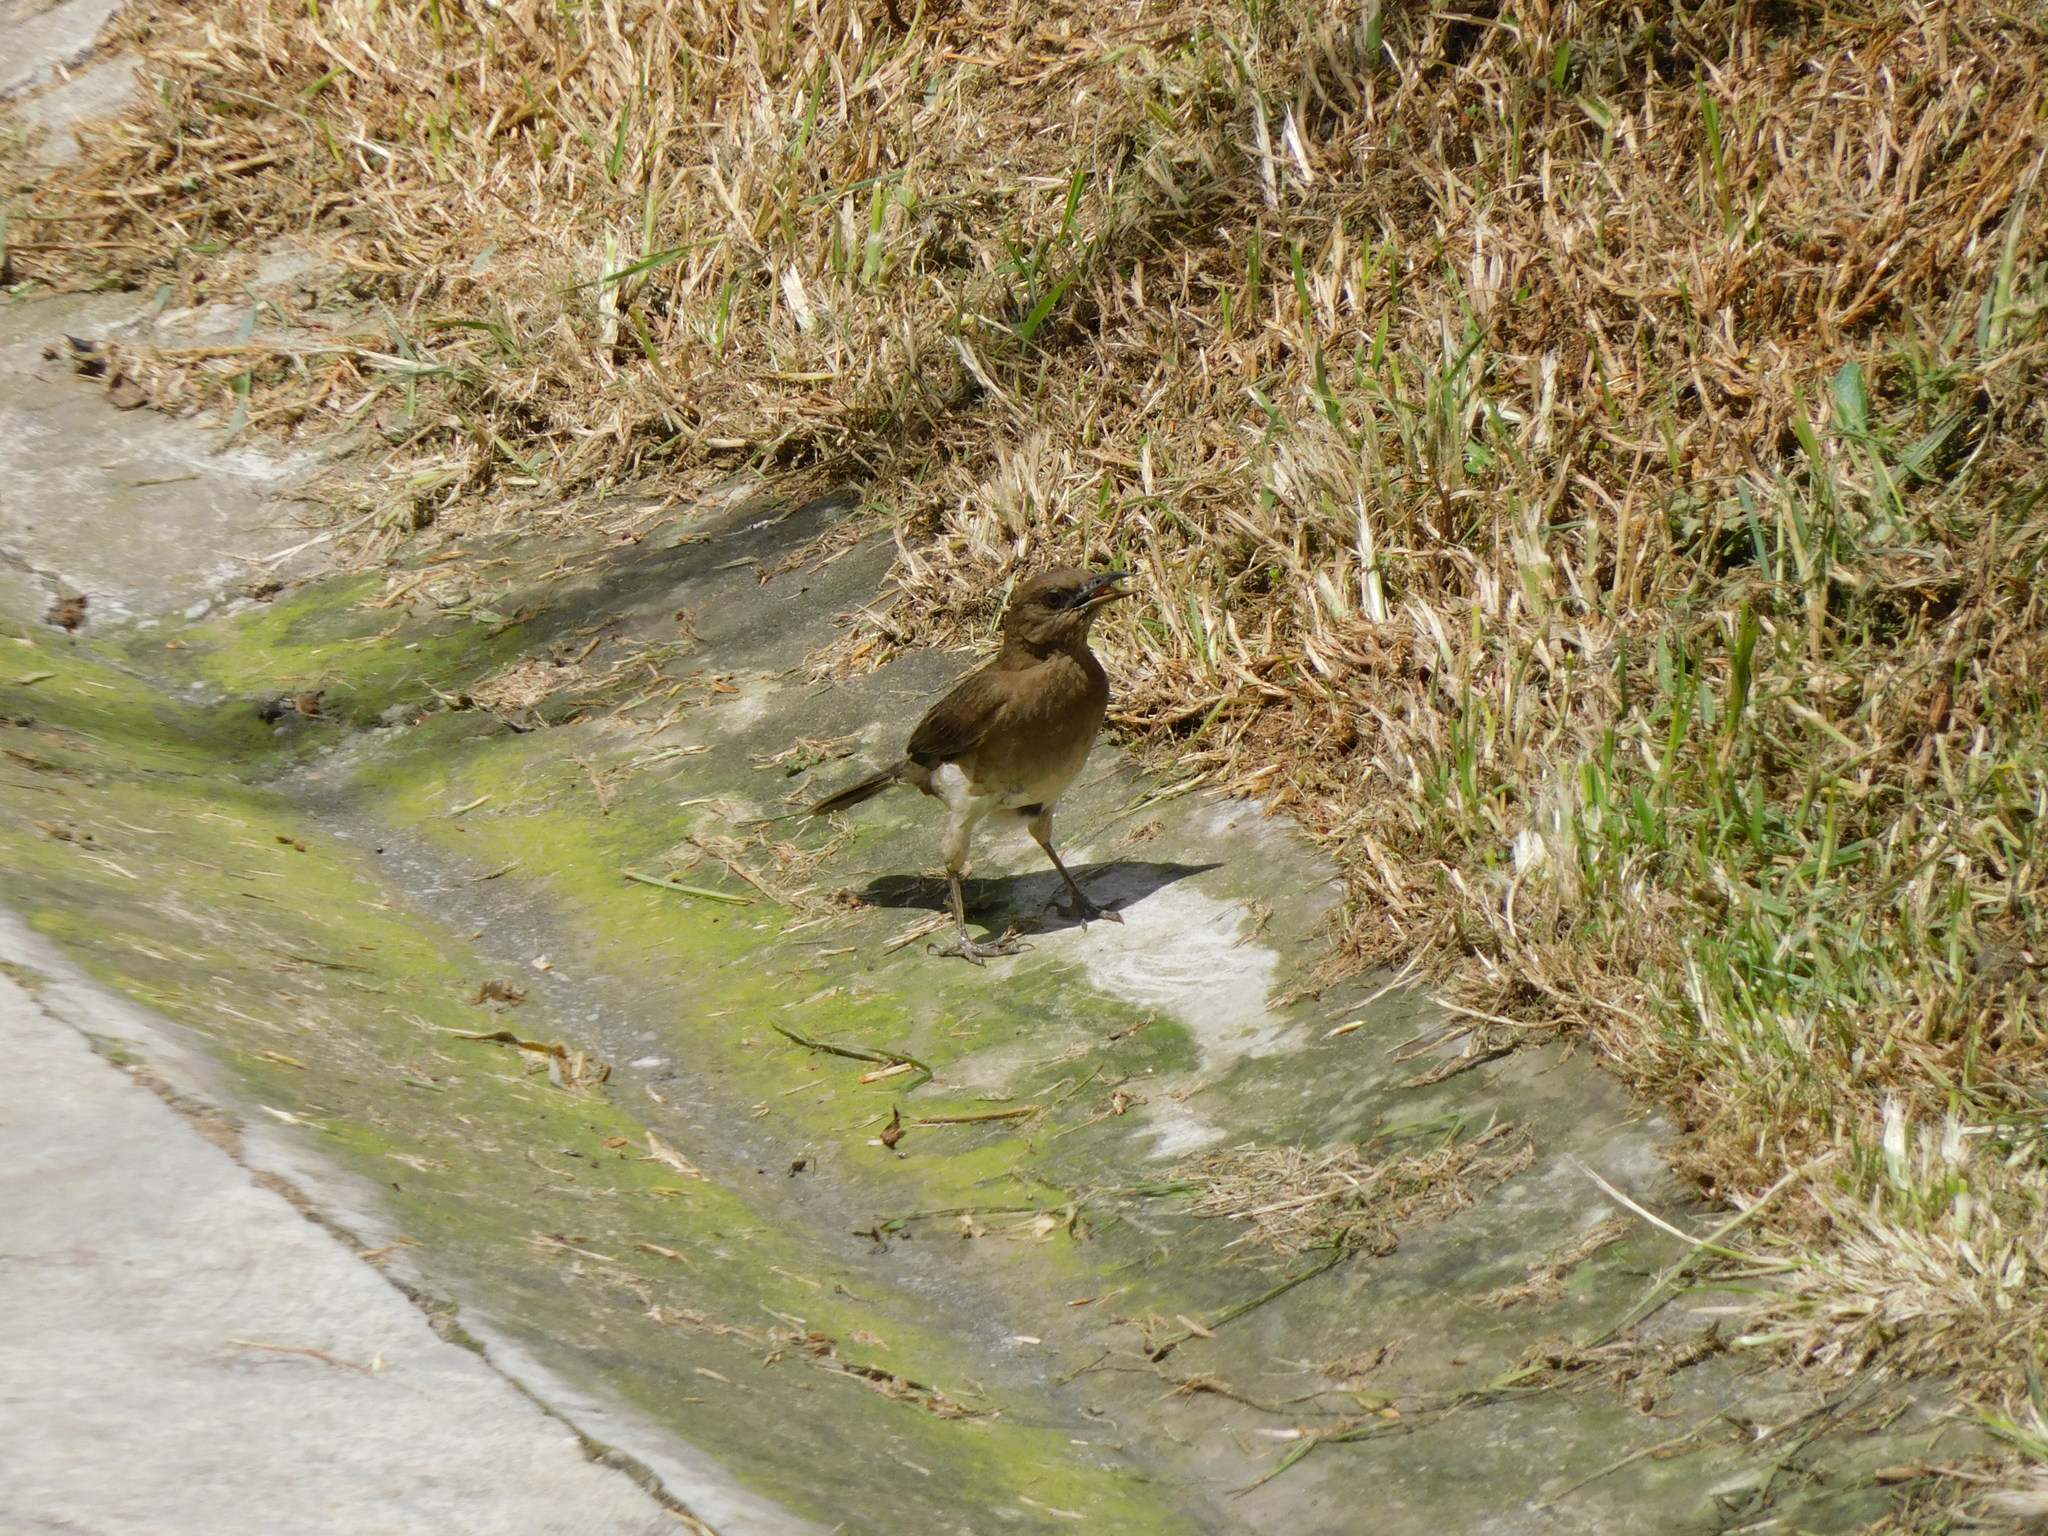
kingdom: Animalia
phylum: Chordata
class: Aves
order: Passeriformes
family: Turdidae
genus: Turdus
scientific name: Turdus ignobilis
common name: Black-billed thrush
